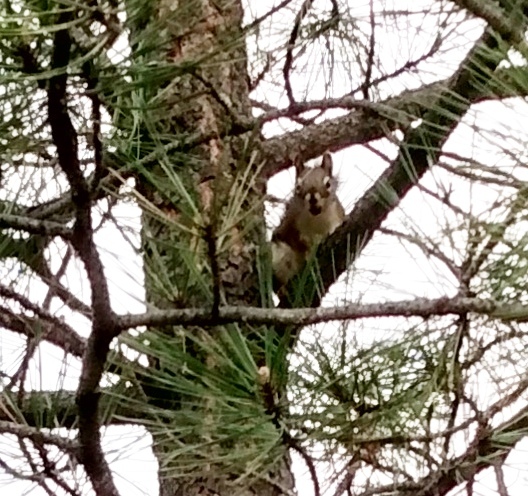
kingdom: Animalia
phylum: Chordata
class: Mammalia
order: Rodentia
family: Sciuridae
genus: Tamiasciurus
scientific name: Tamiasciurus hudsonicus
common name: Red squirrel
